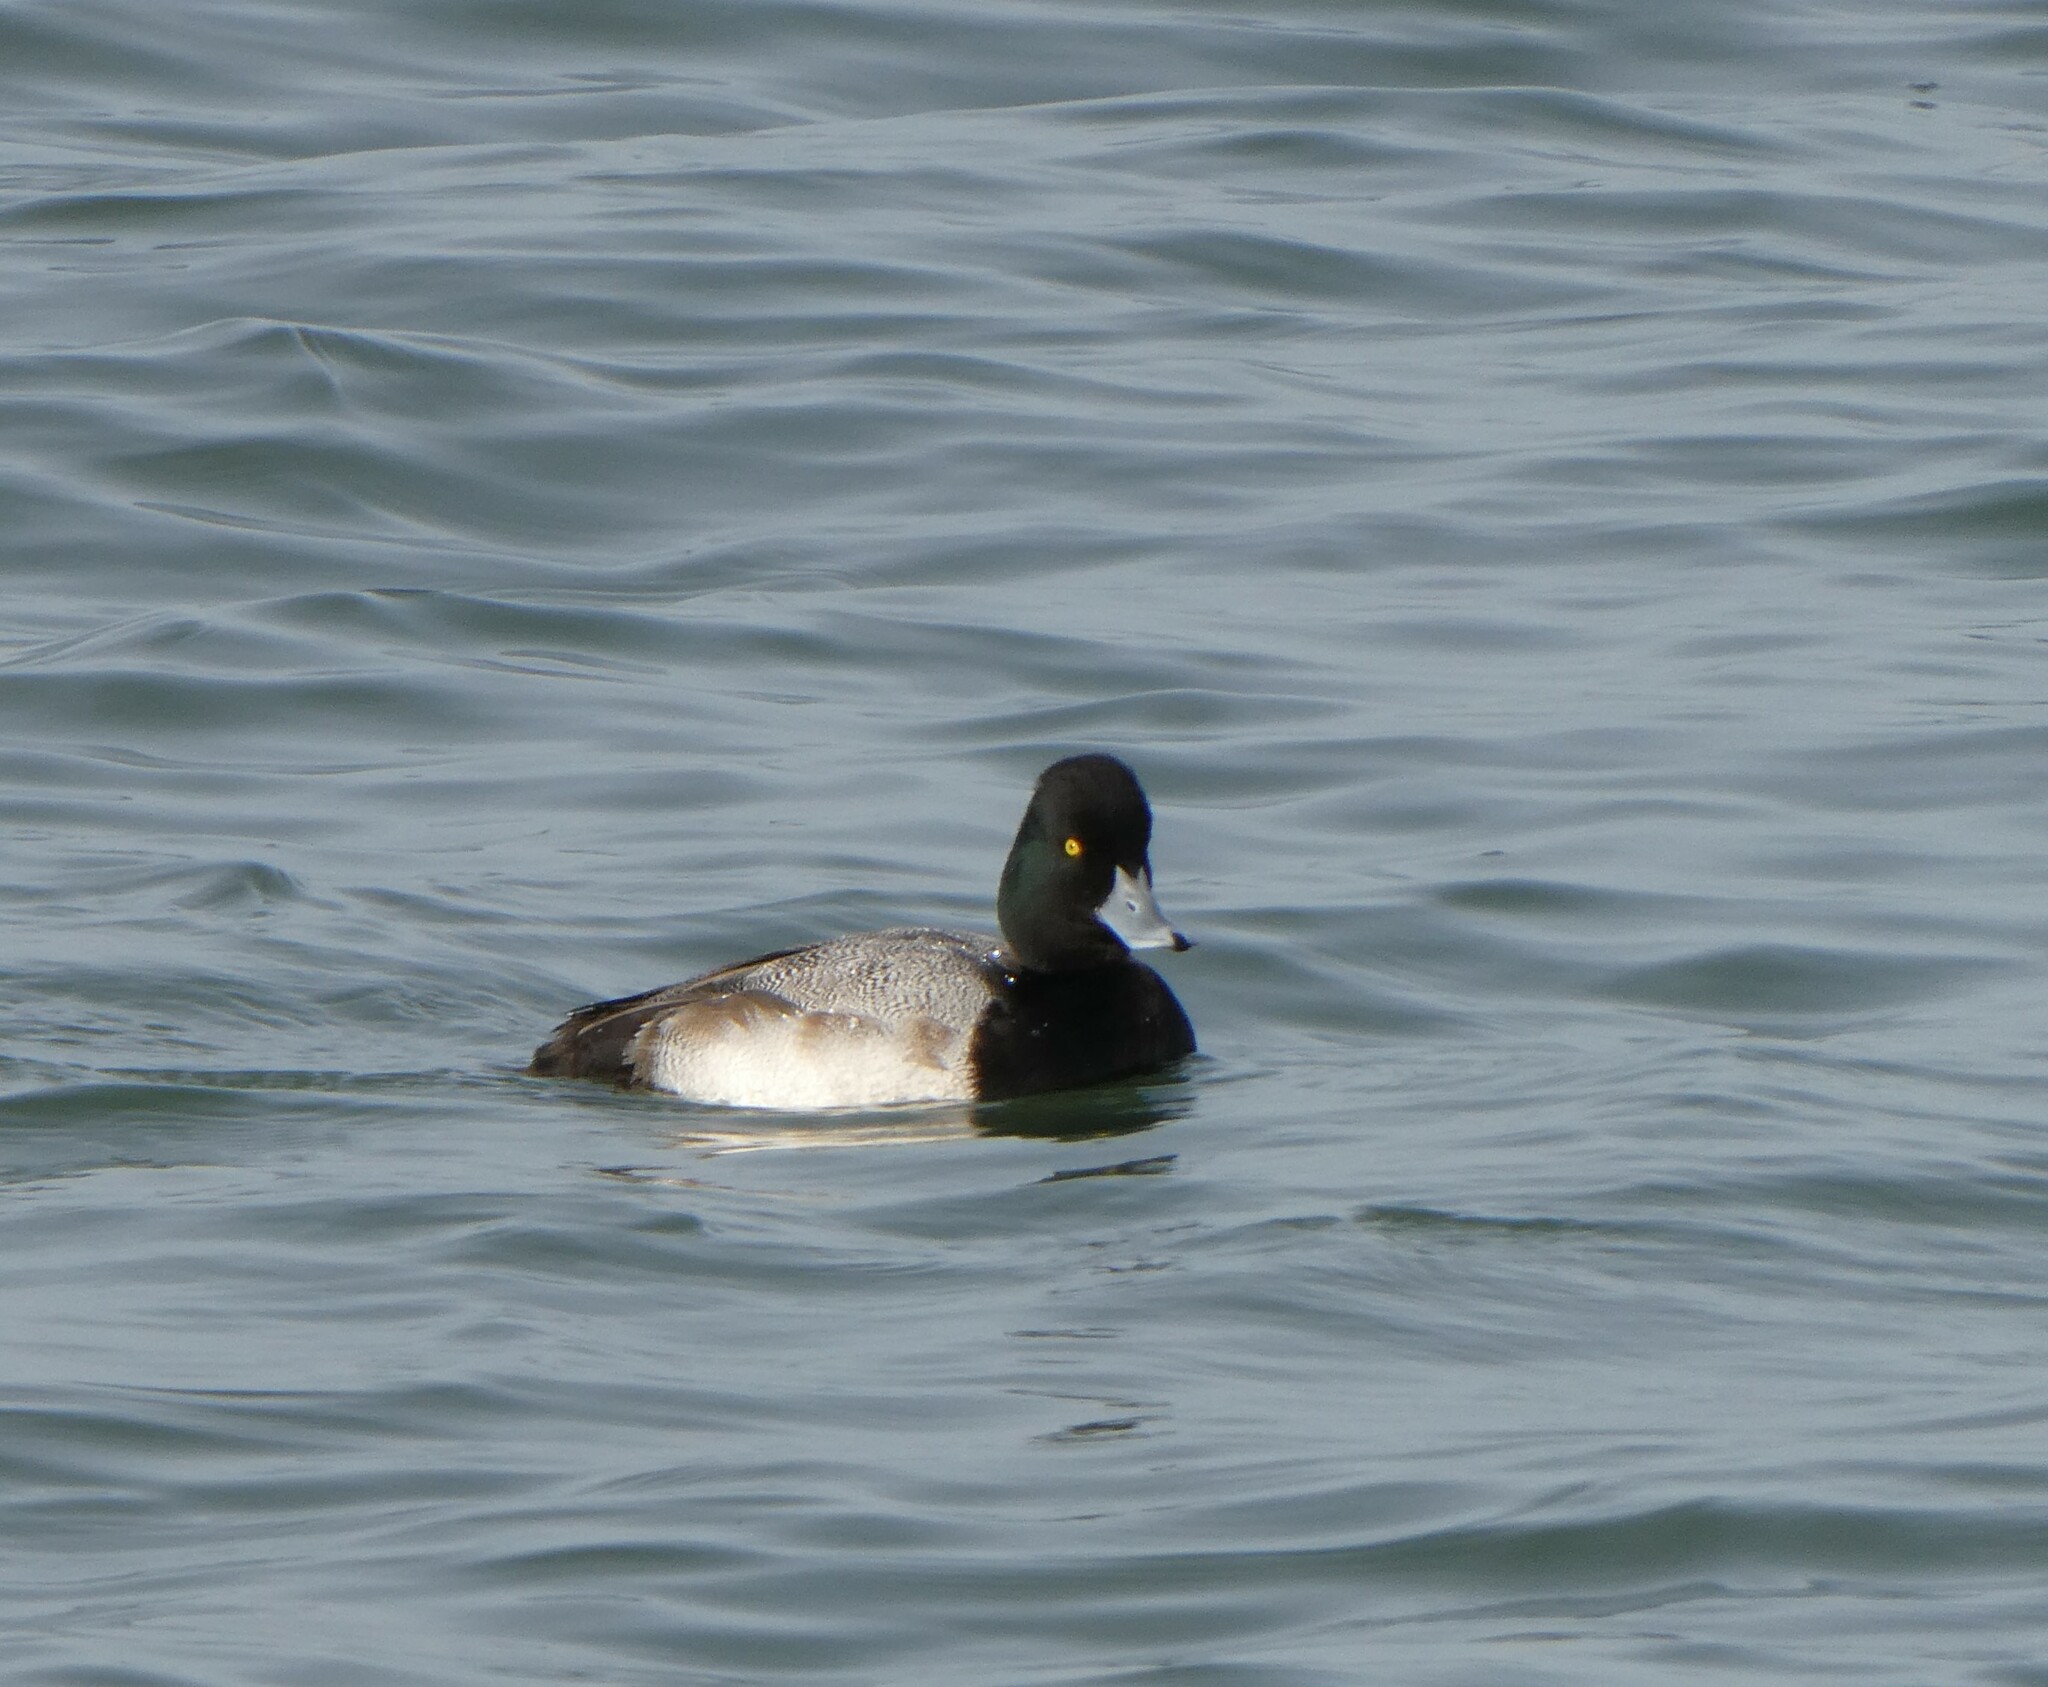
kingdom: Animalia
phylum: Chordata
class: Aves
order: Anseriformes
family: Anatidae
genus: Aythya
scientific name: Aythya affinis
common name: Lesser scaup
